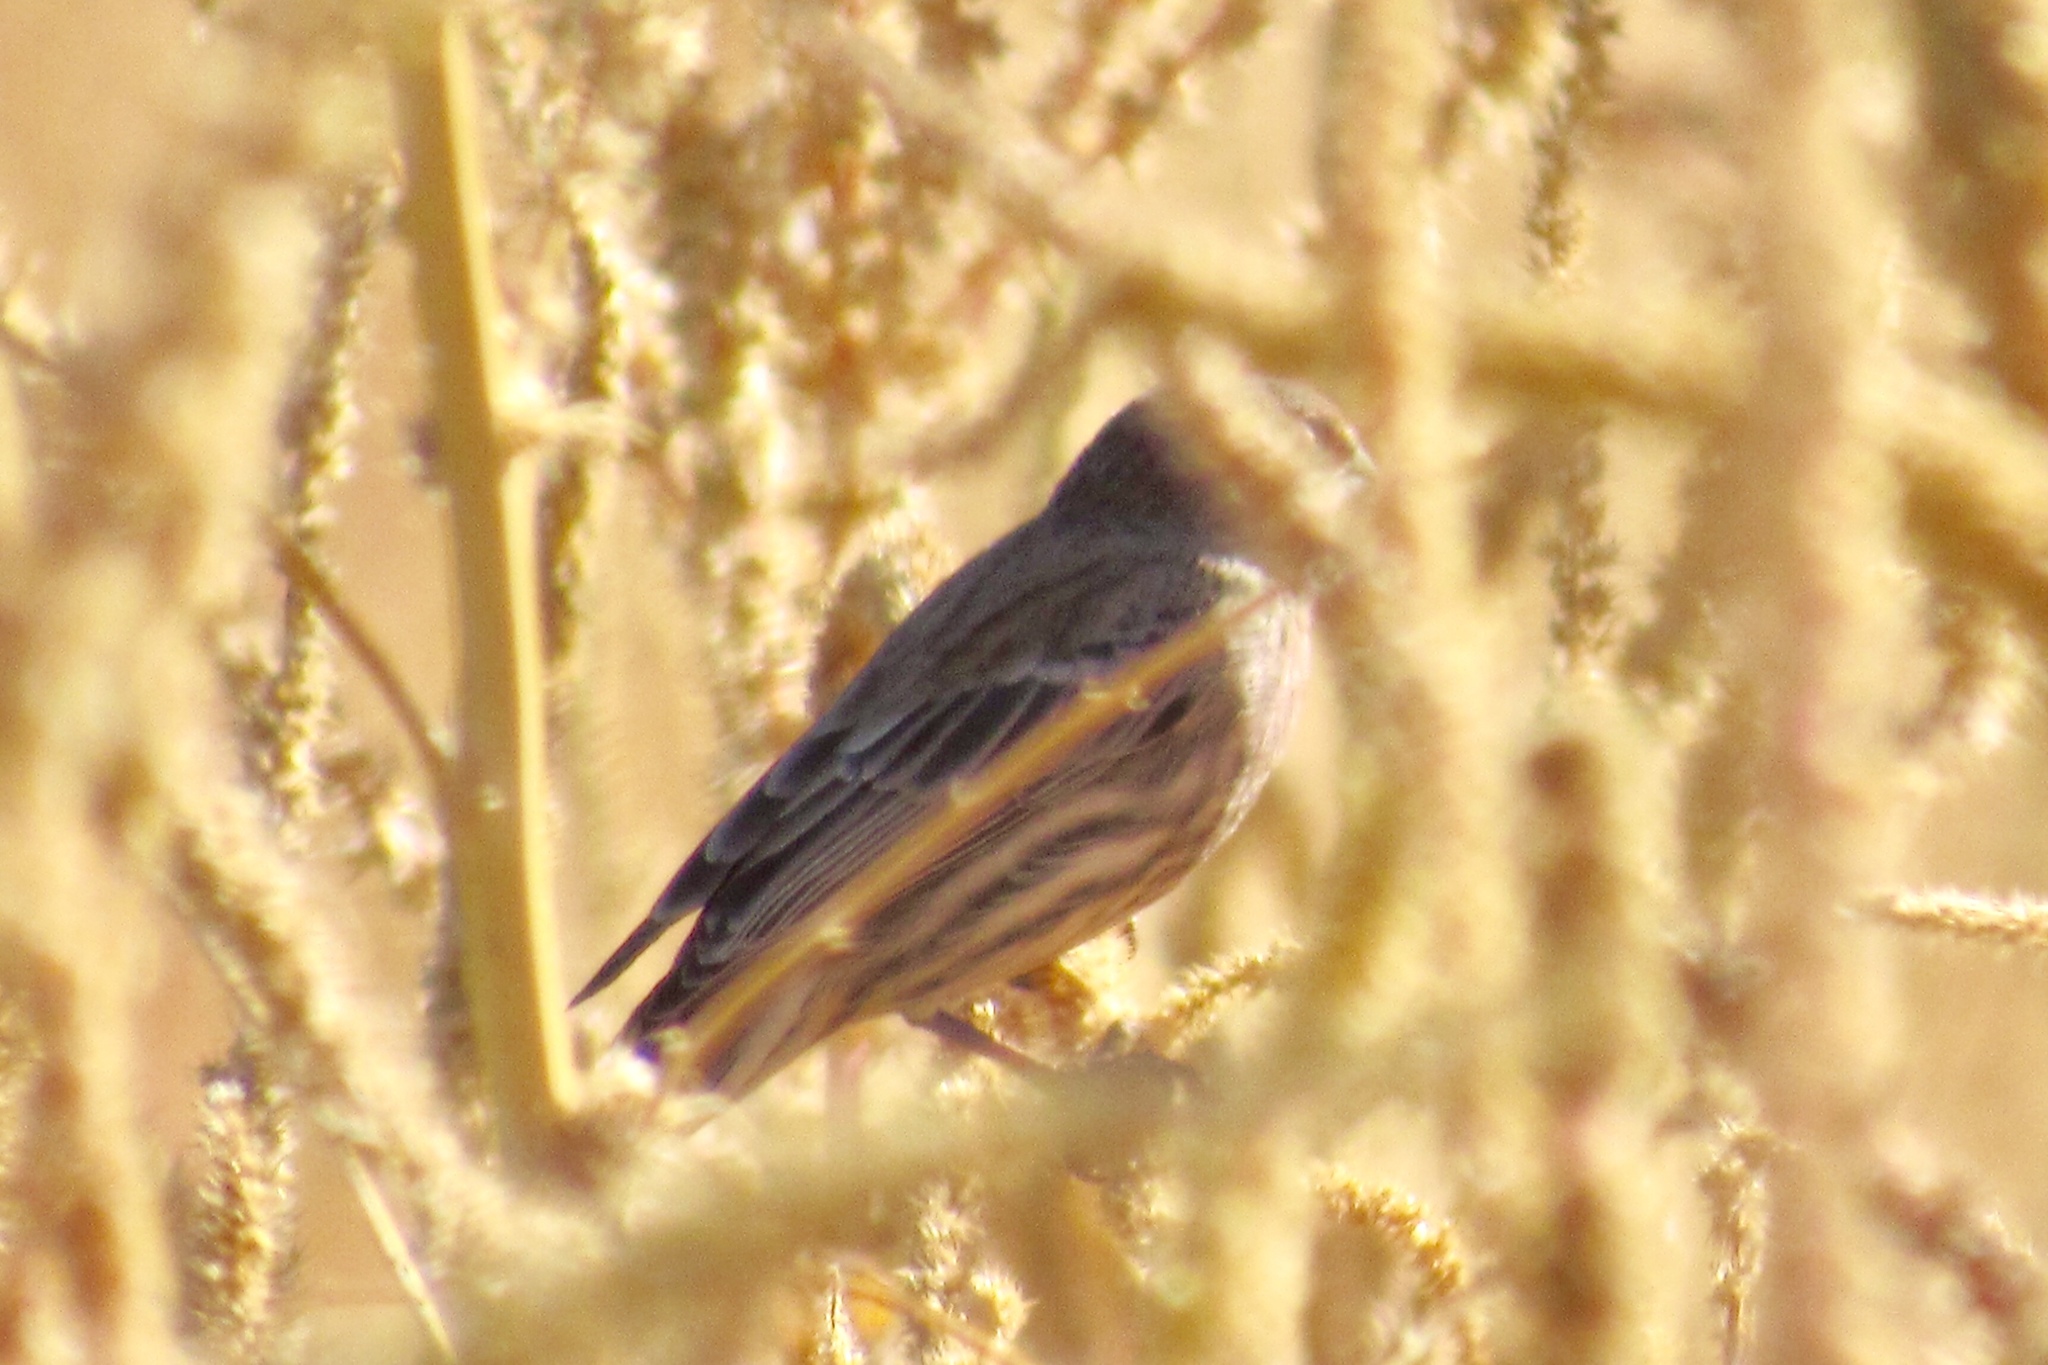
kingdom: Animalia
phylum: Chordata
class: Aves
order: Passeriformes
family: Fringillidae
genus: Haemorhous
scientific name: Haemorhous mexicanus
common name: House finch
